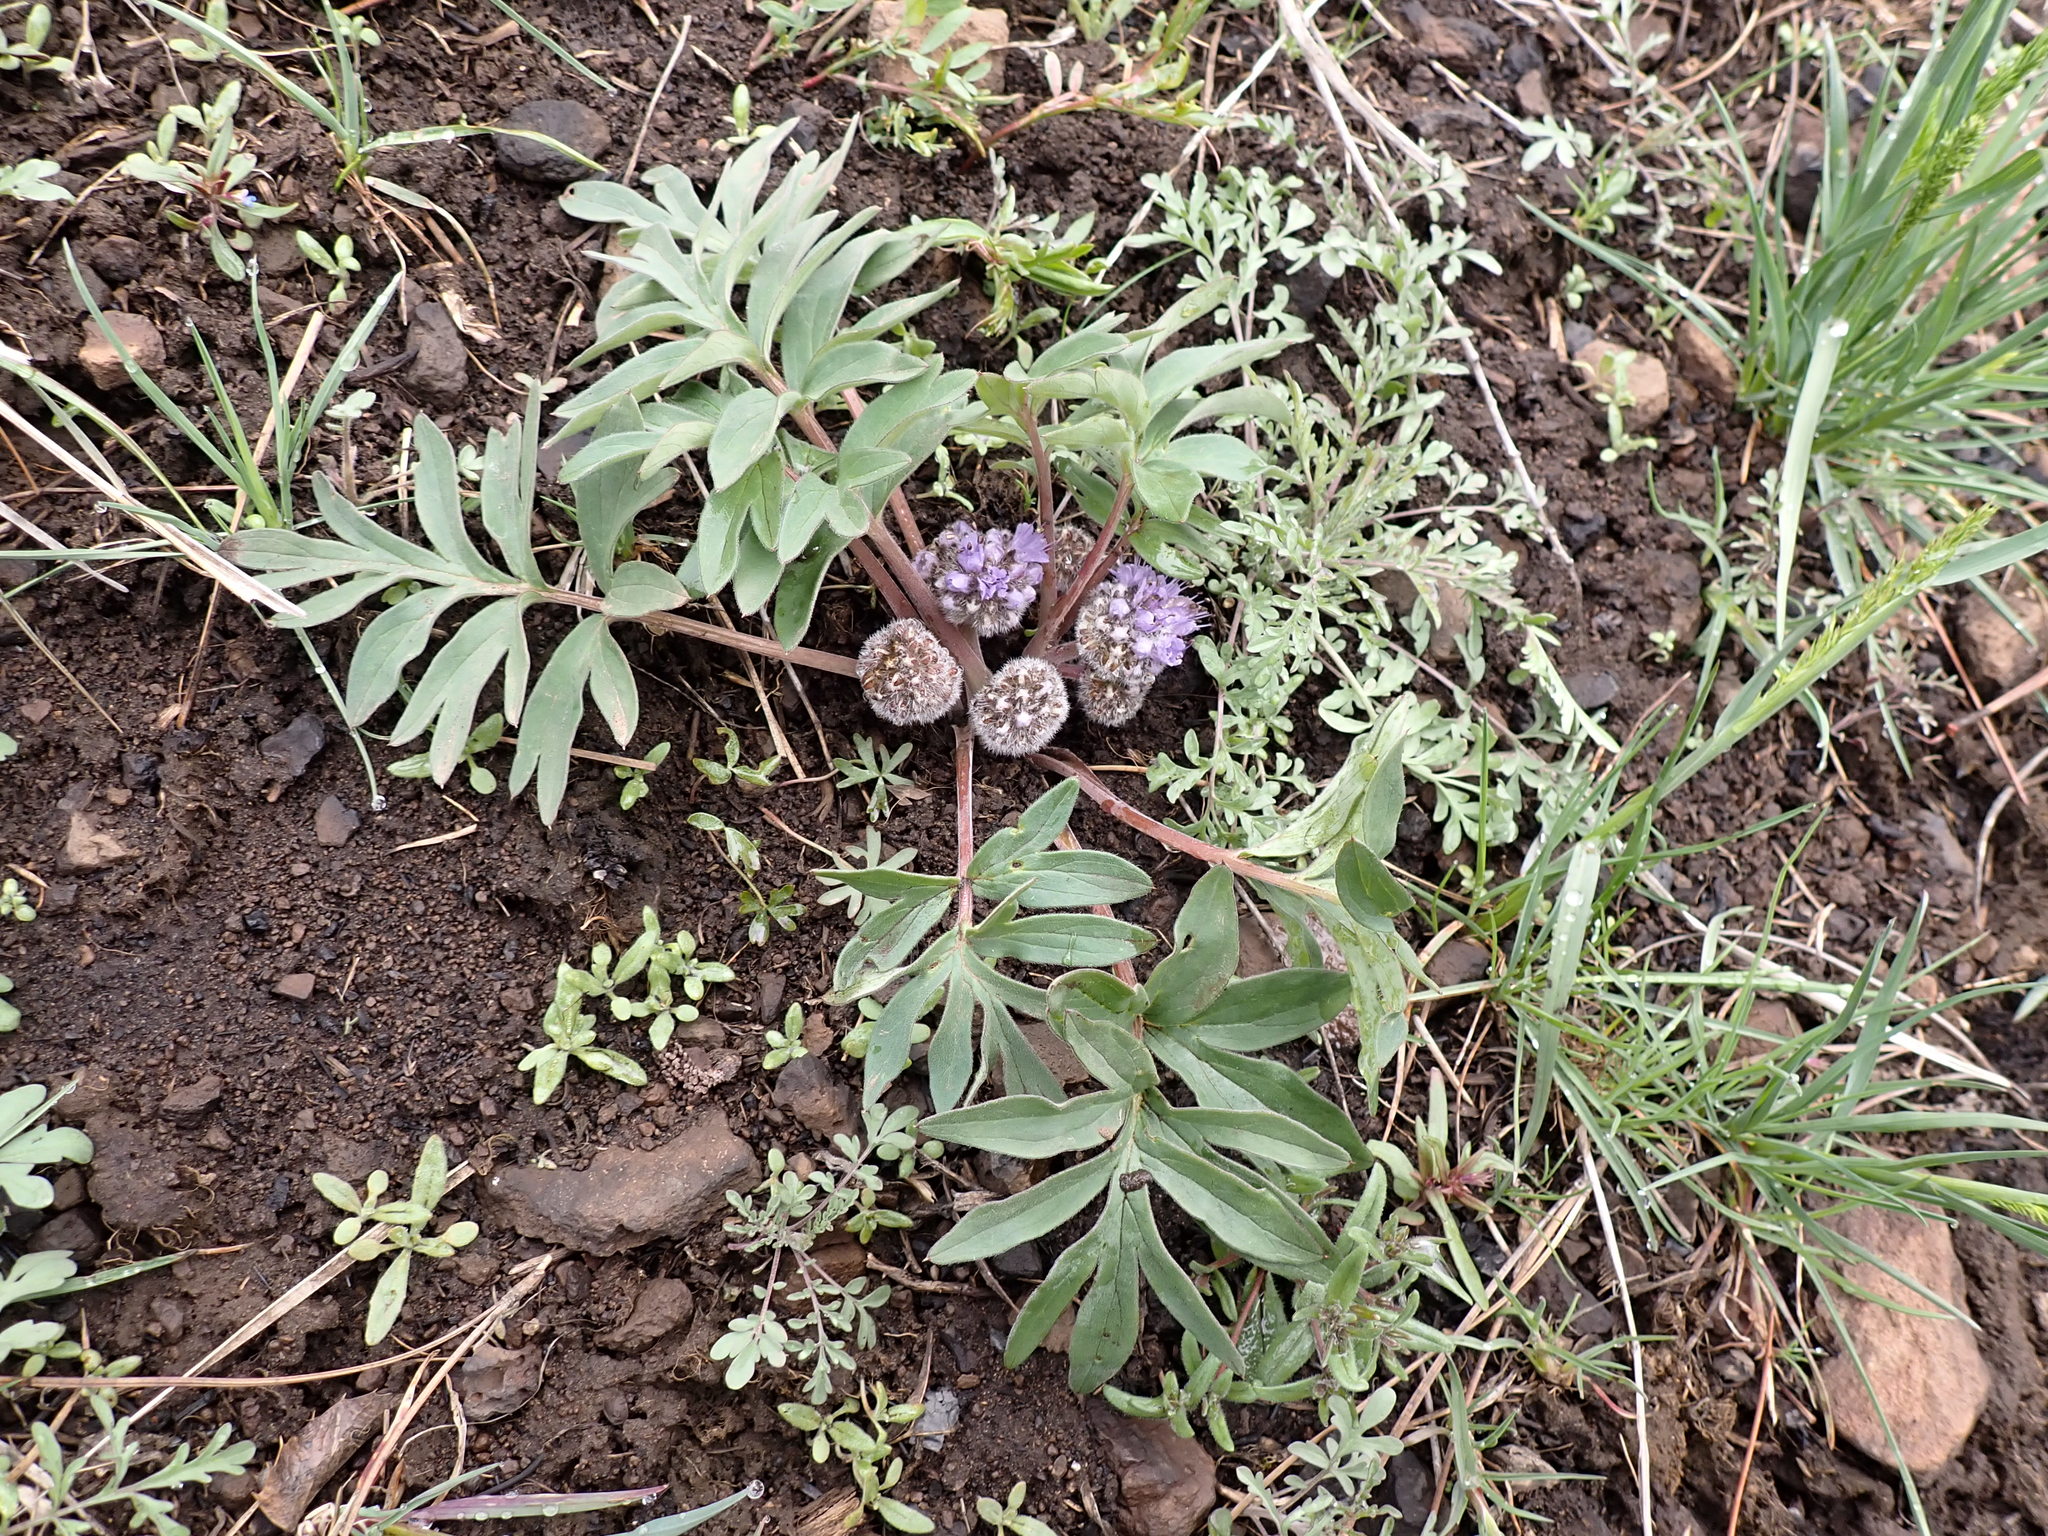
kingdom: Plantae
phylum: Tracheophyta
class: Magnoliopsida
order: Boraginales
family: Hydrophyllaceae
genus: Hydrophyllum
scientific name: Hydrophyllum capitatum
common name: Woollen-breeches
